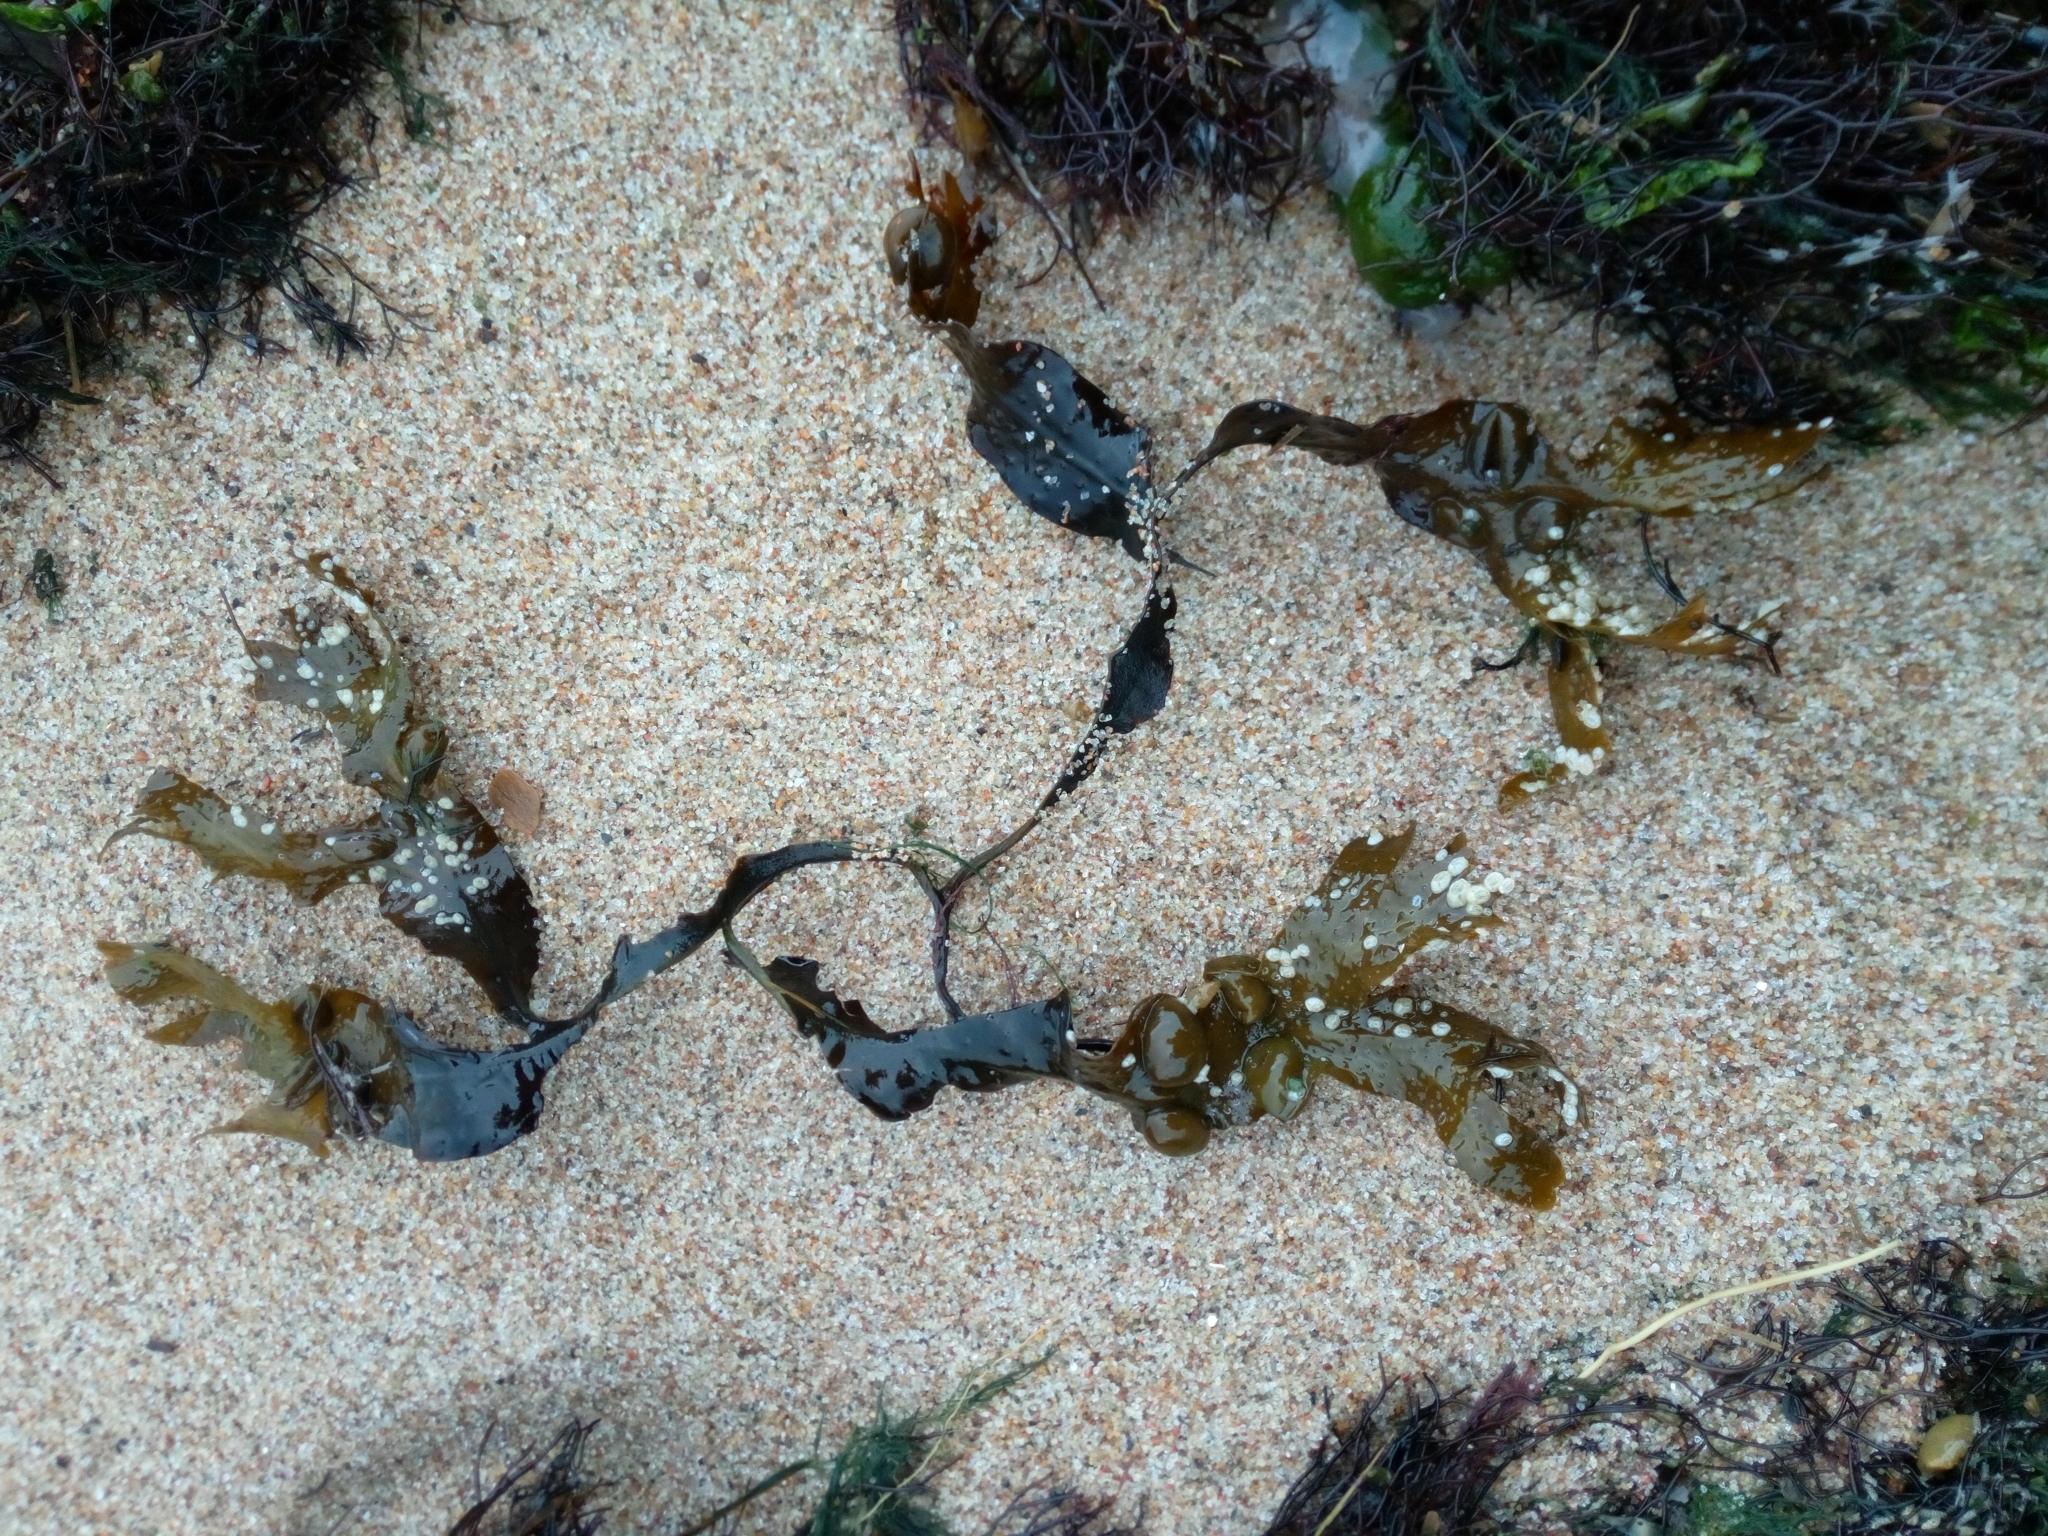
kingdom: Chromista
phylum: Ochrophyta
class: Phaeophyceae
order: Fucales
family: Fucaceae
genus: Fucus
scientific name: Fucus vesiculosus
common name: Bladder wrack
